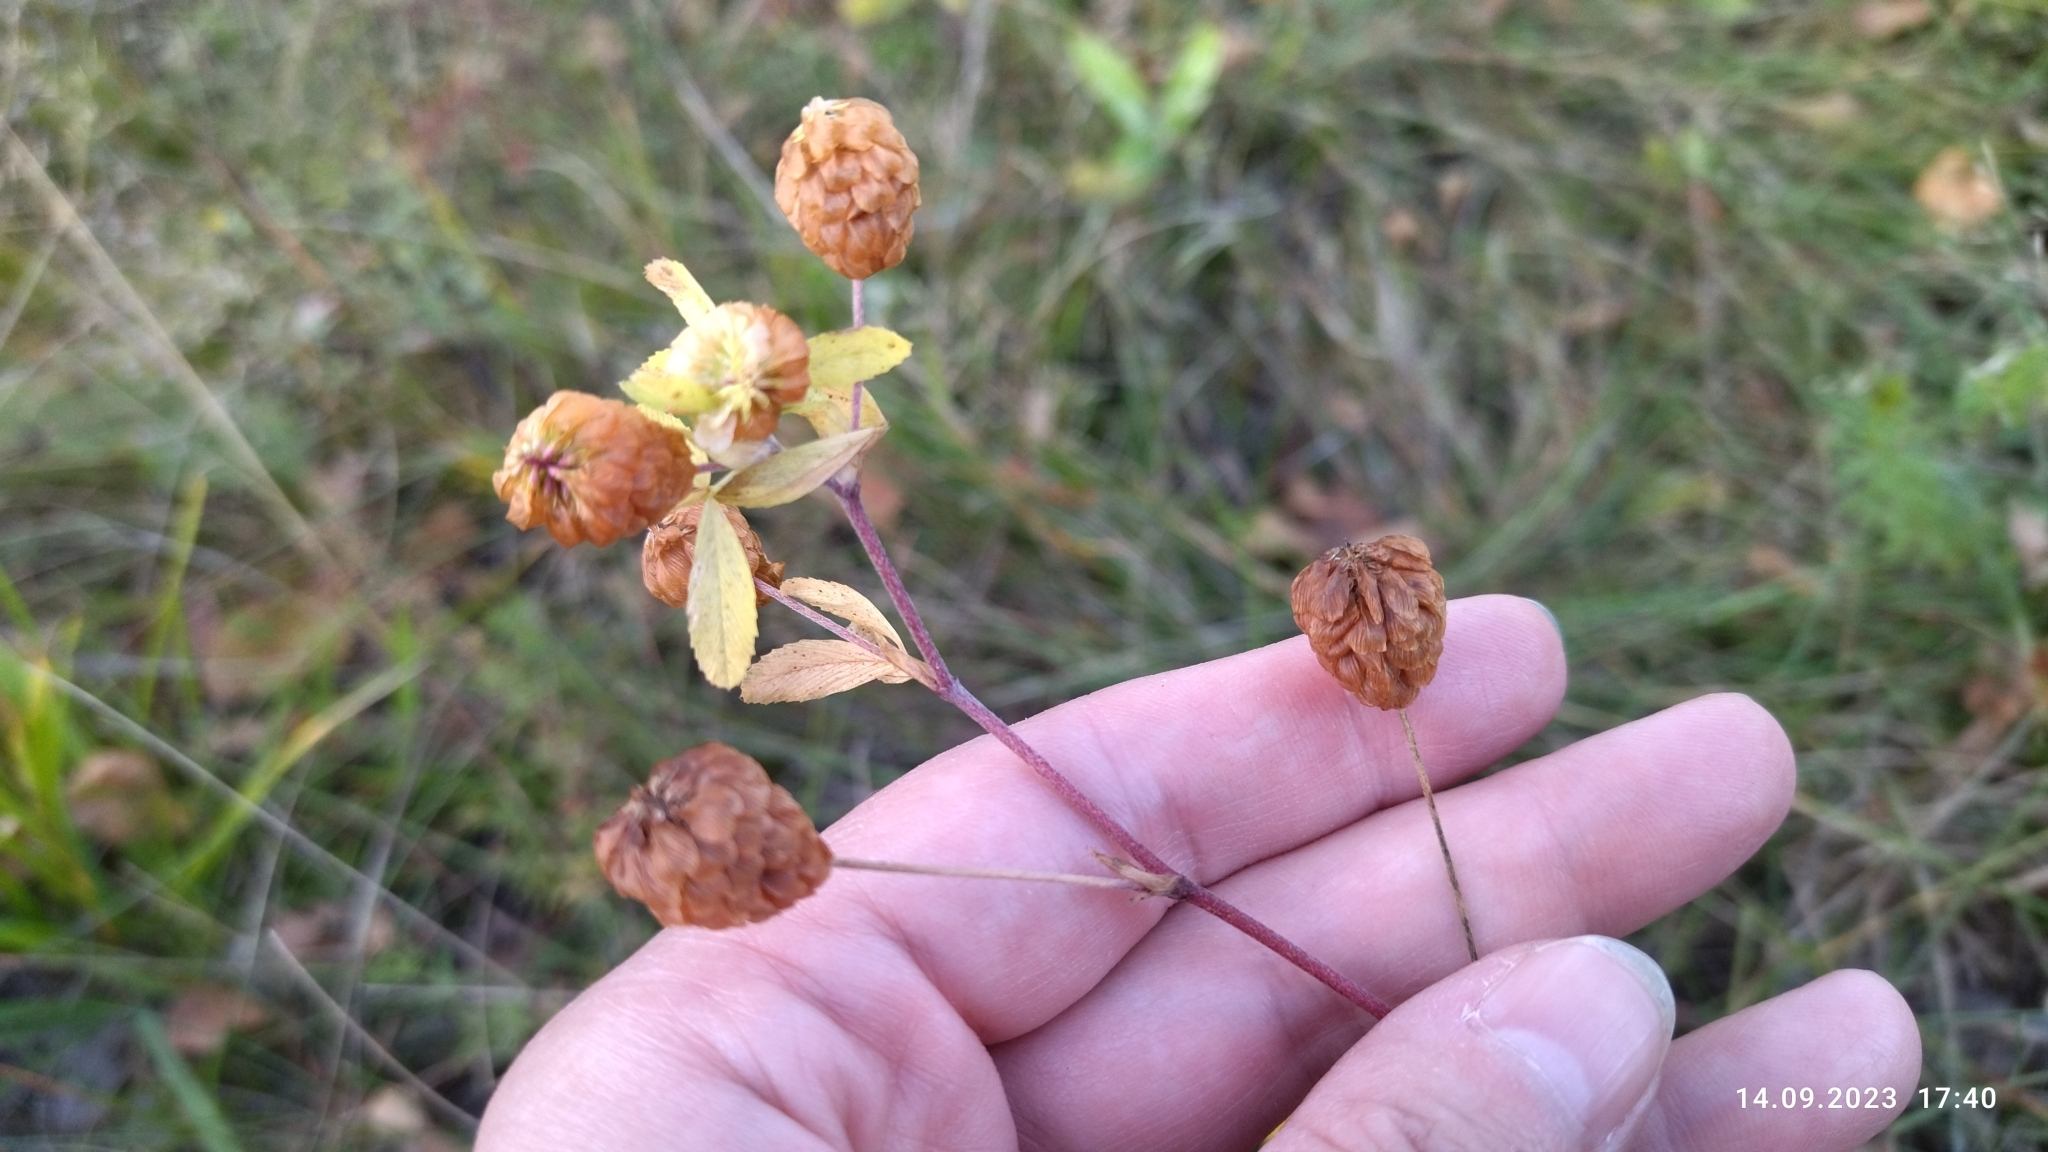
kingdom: Plantae
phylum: Tracheophyta
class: Magnoliopsida
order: Fabales
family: Fabaceae
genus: Trifolium
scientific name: Trifolium aureum
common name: Golden clover
